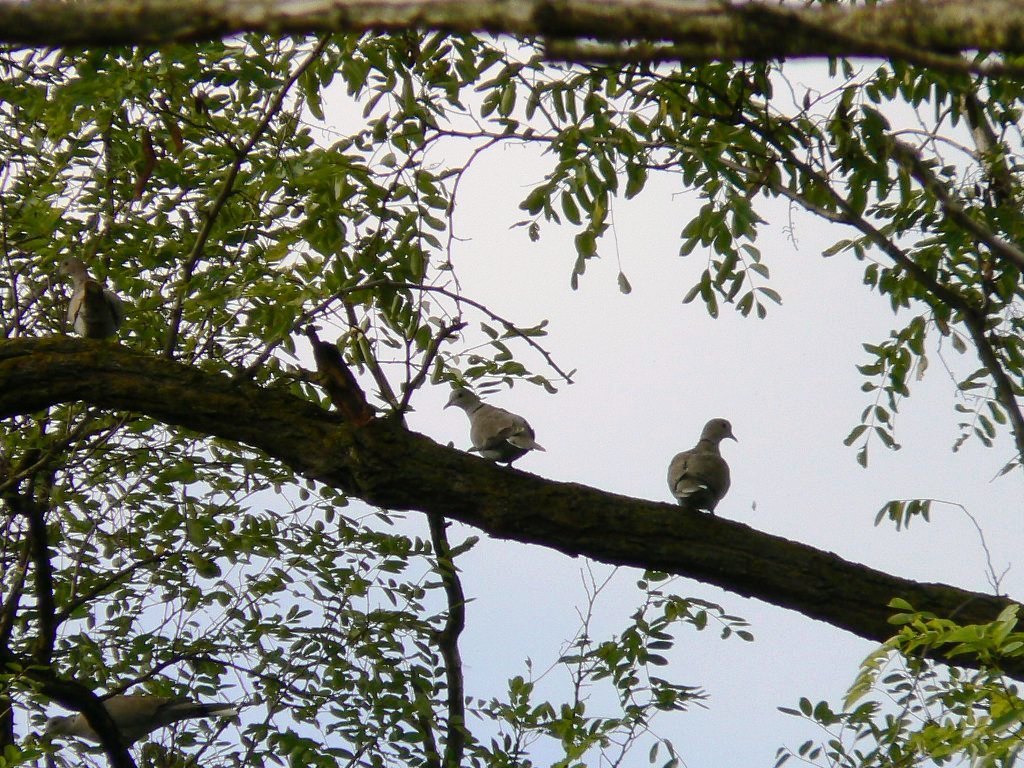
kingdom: Animalia
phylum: Chordata
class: Aves
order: Columbiformes
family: Columbidae
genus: Streptopelia
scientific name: Streptopelia decaocto
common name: Eurasian collared dove
